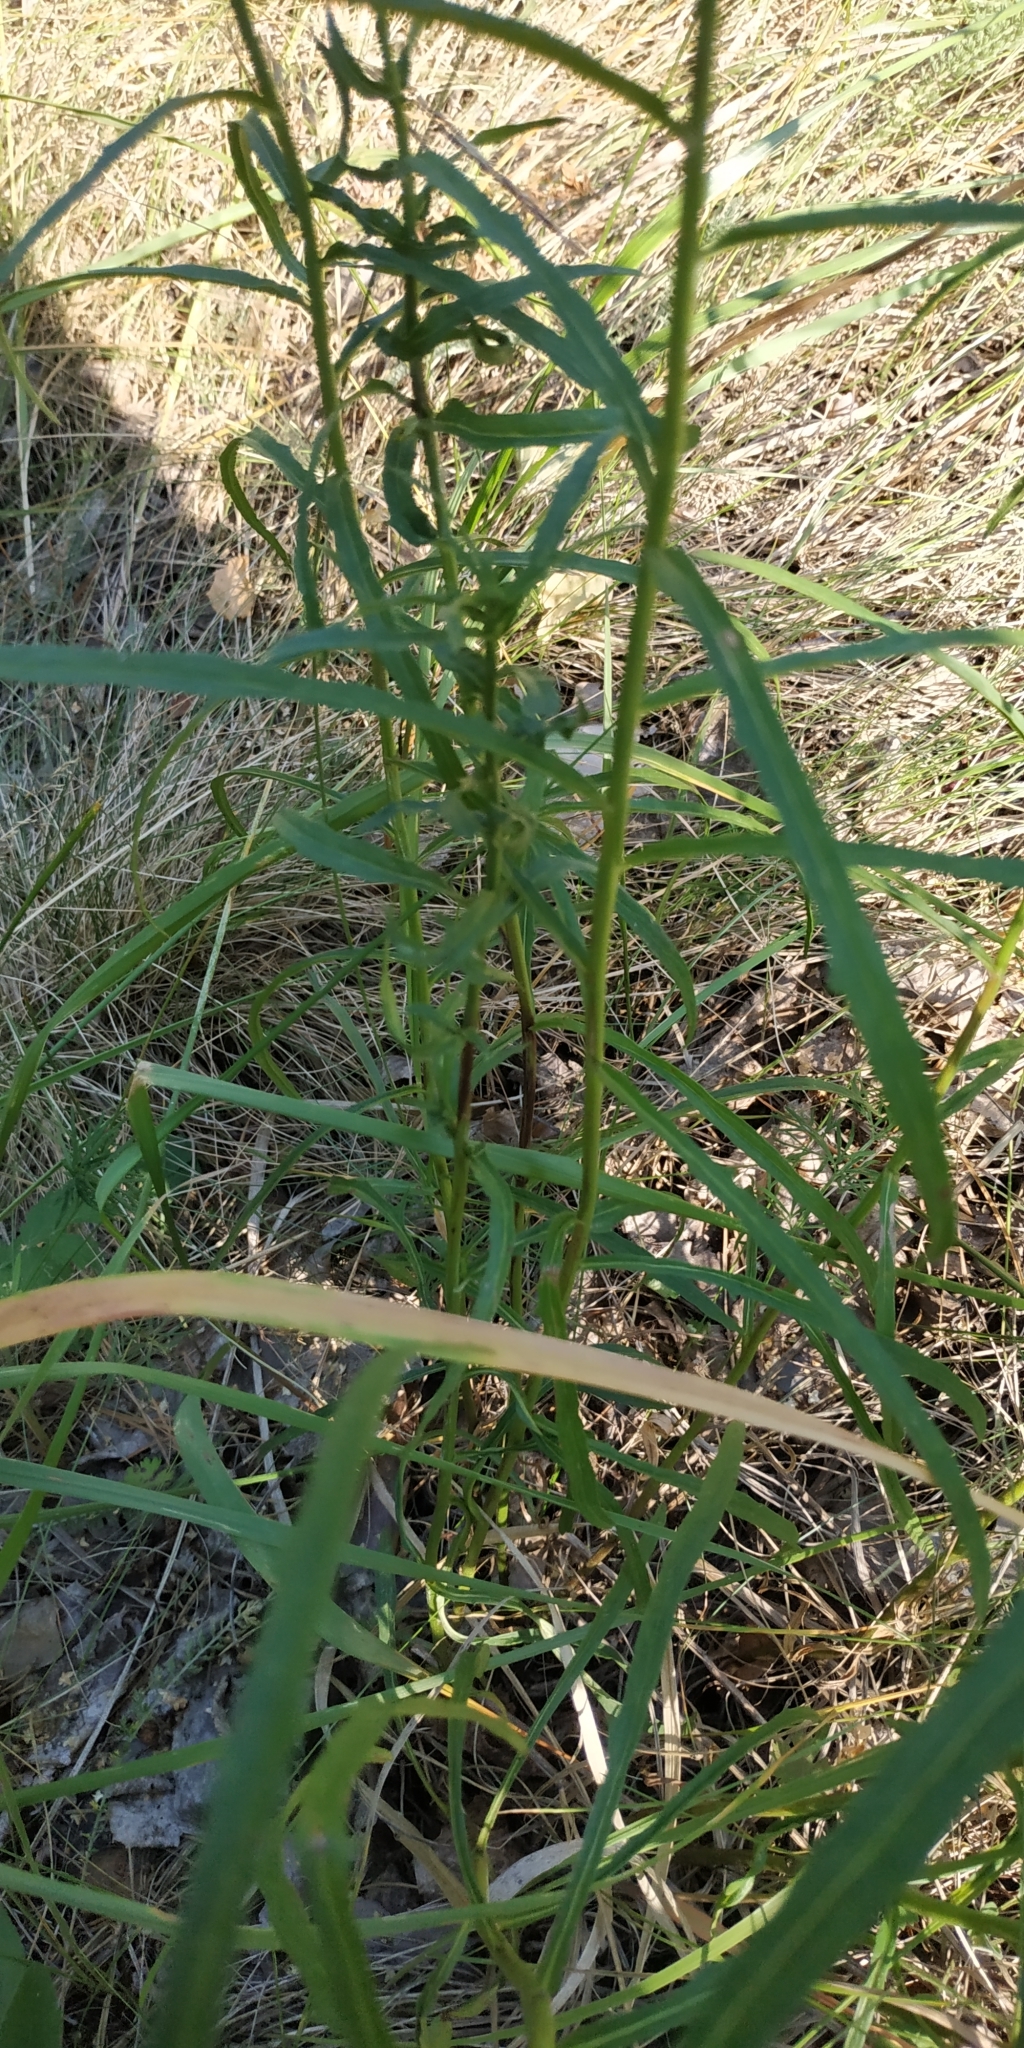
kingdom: Plantae
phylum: Tracheophyta
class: Magnoliopsida
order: Asterales
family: Asteraceae
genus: Hieracium
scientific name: Hieracium umbellatum
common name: Northern hawkweed
